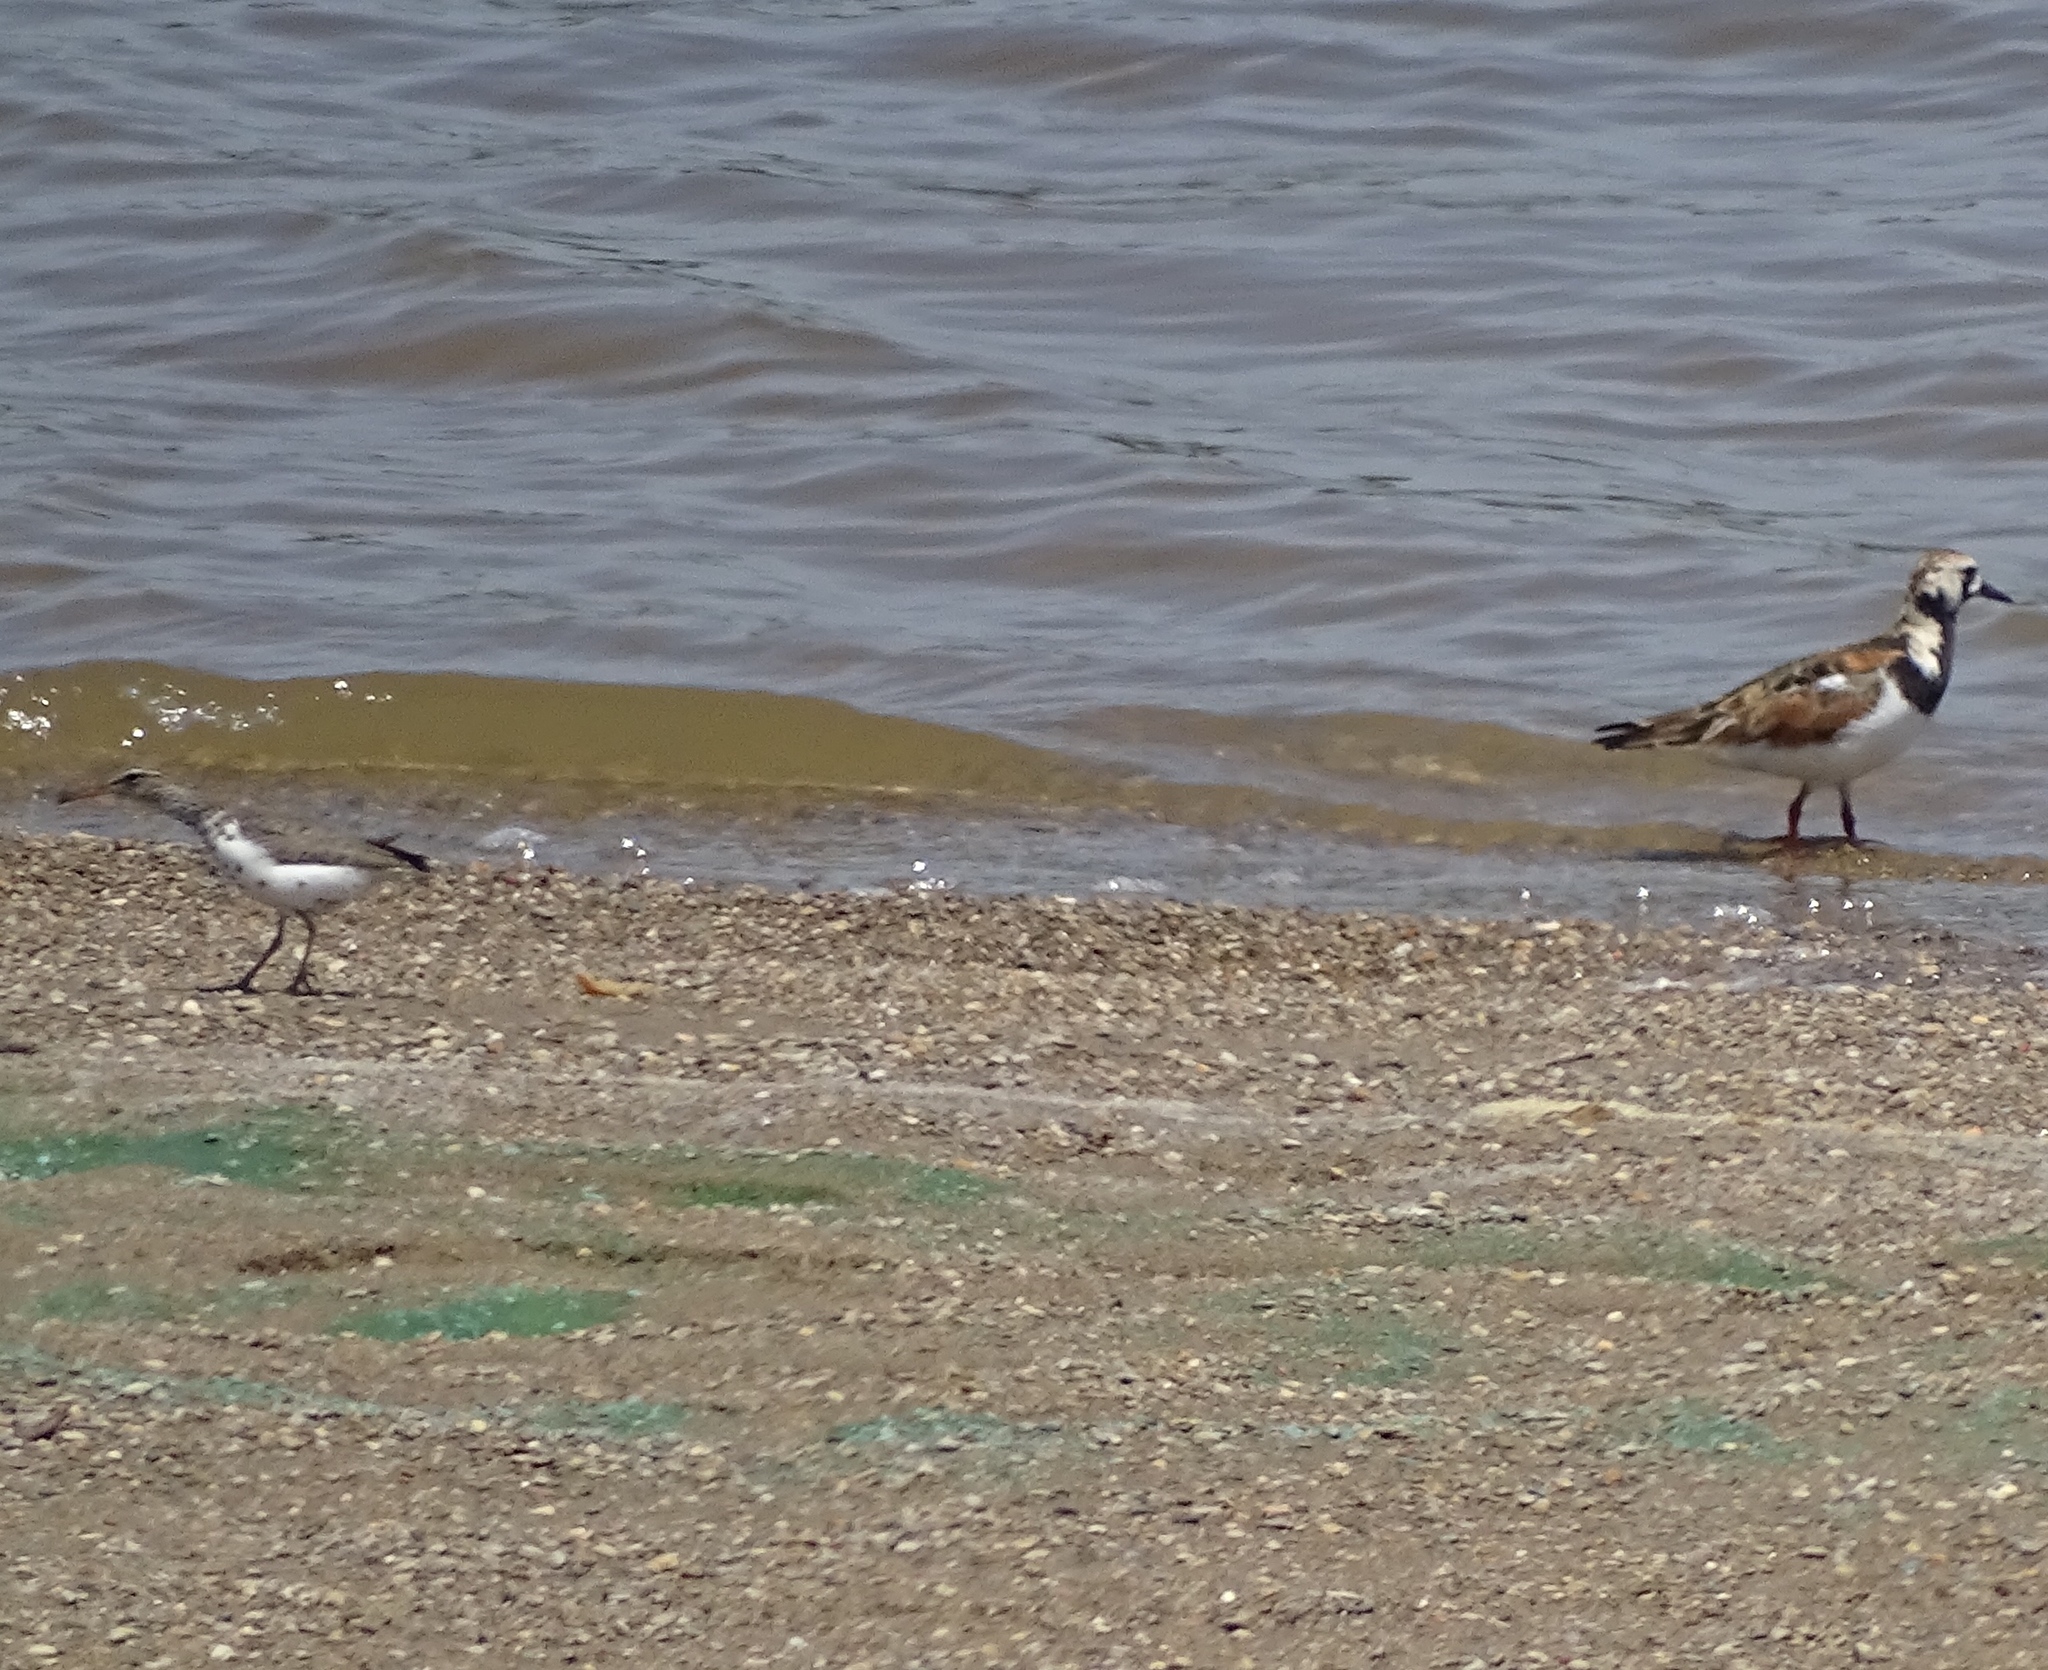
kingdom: Animalia
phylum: Chordata
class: Aves
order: Charadriiformes
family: Scolopacidae
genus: Actitis
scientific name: Actitis macularius
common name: Spotted sandpiper
